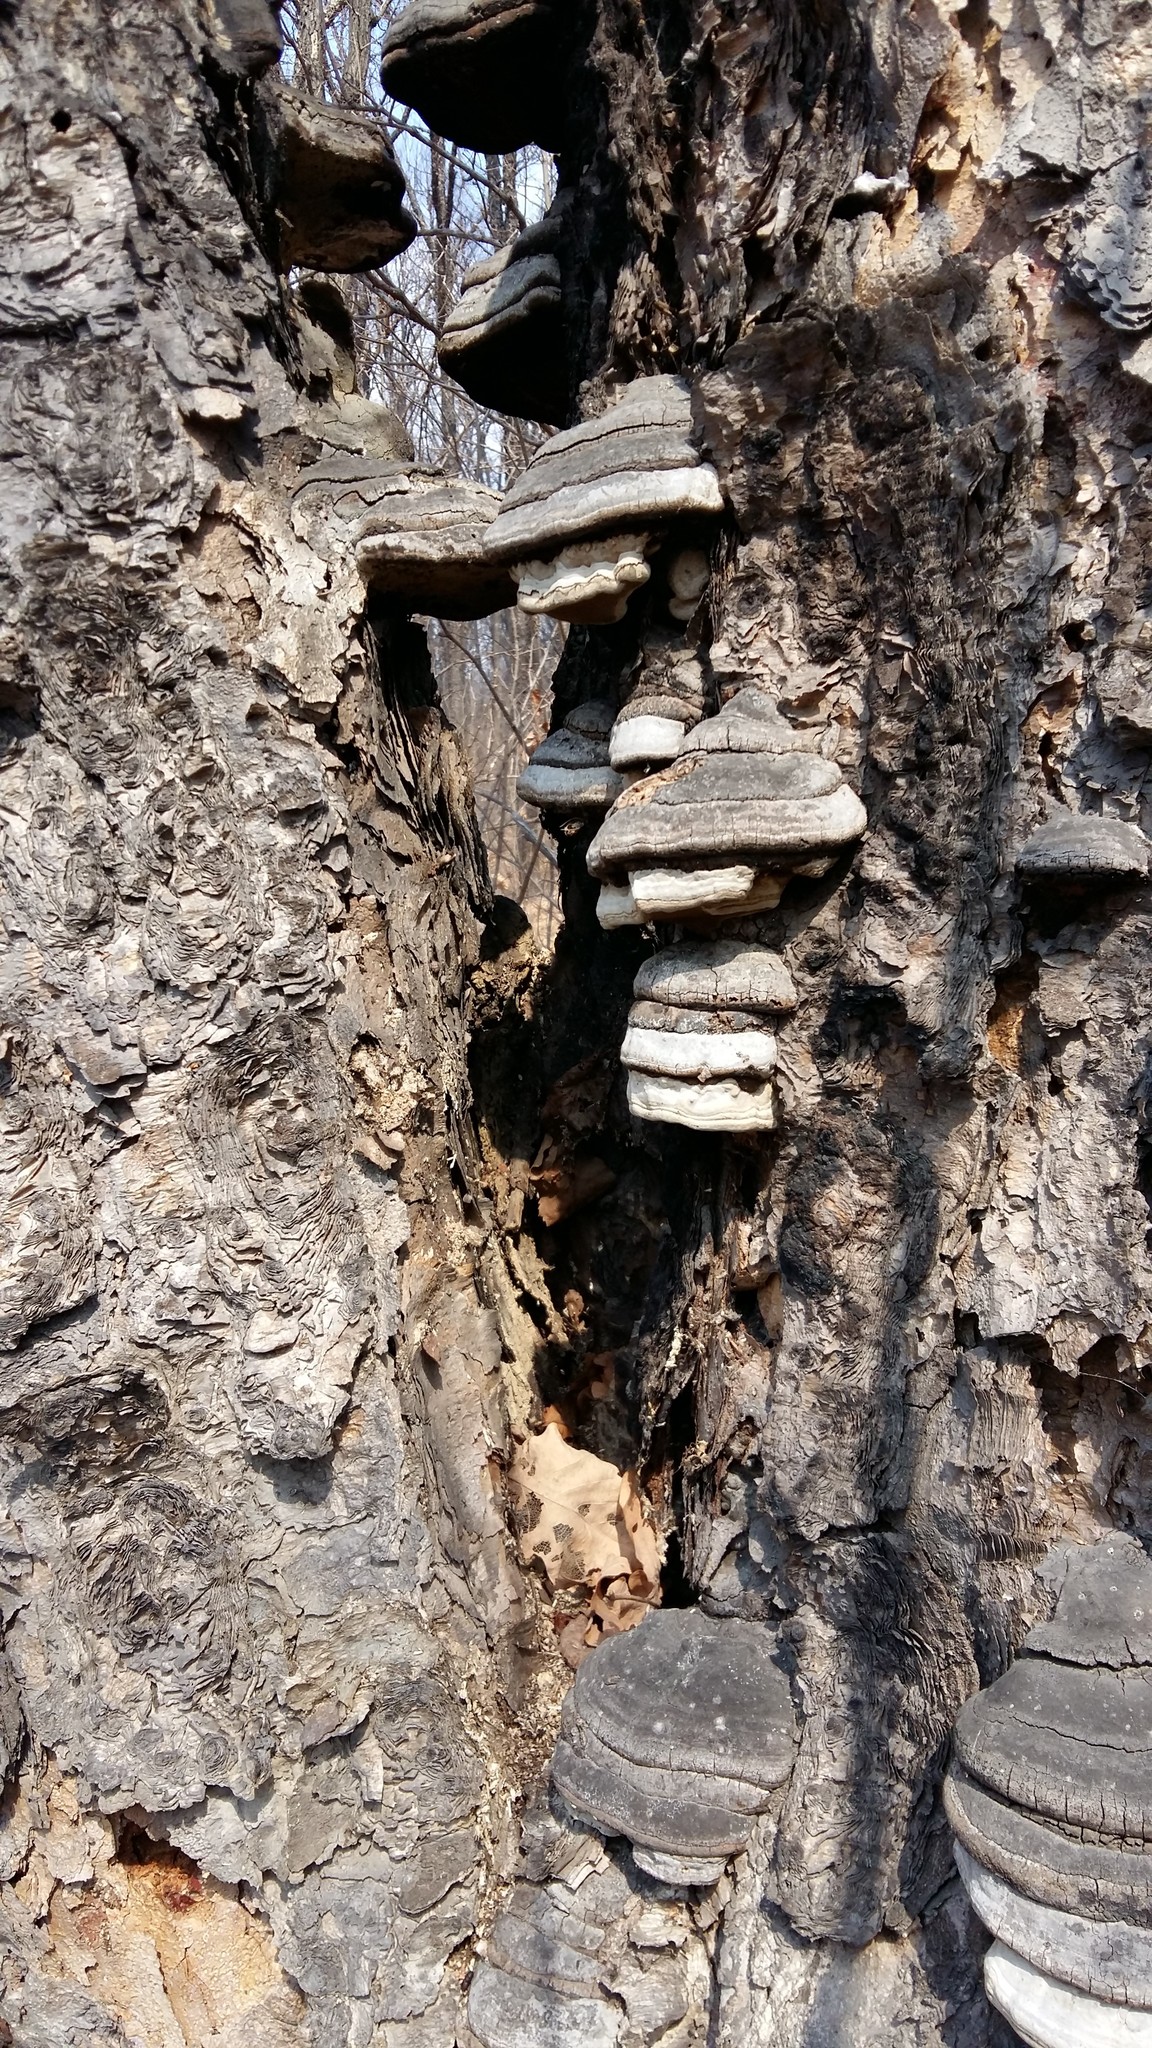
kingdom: Fungi
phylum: Basidiomycota
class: Agaricomycetes
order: Polyporales
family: Polyporaceae
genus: Fomes
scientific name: Fomes fomentarius
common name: Hoof fungus
